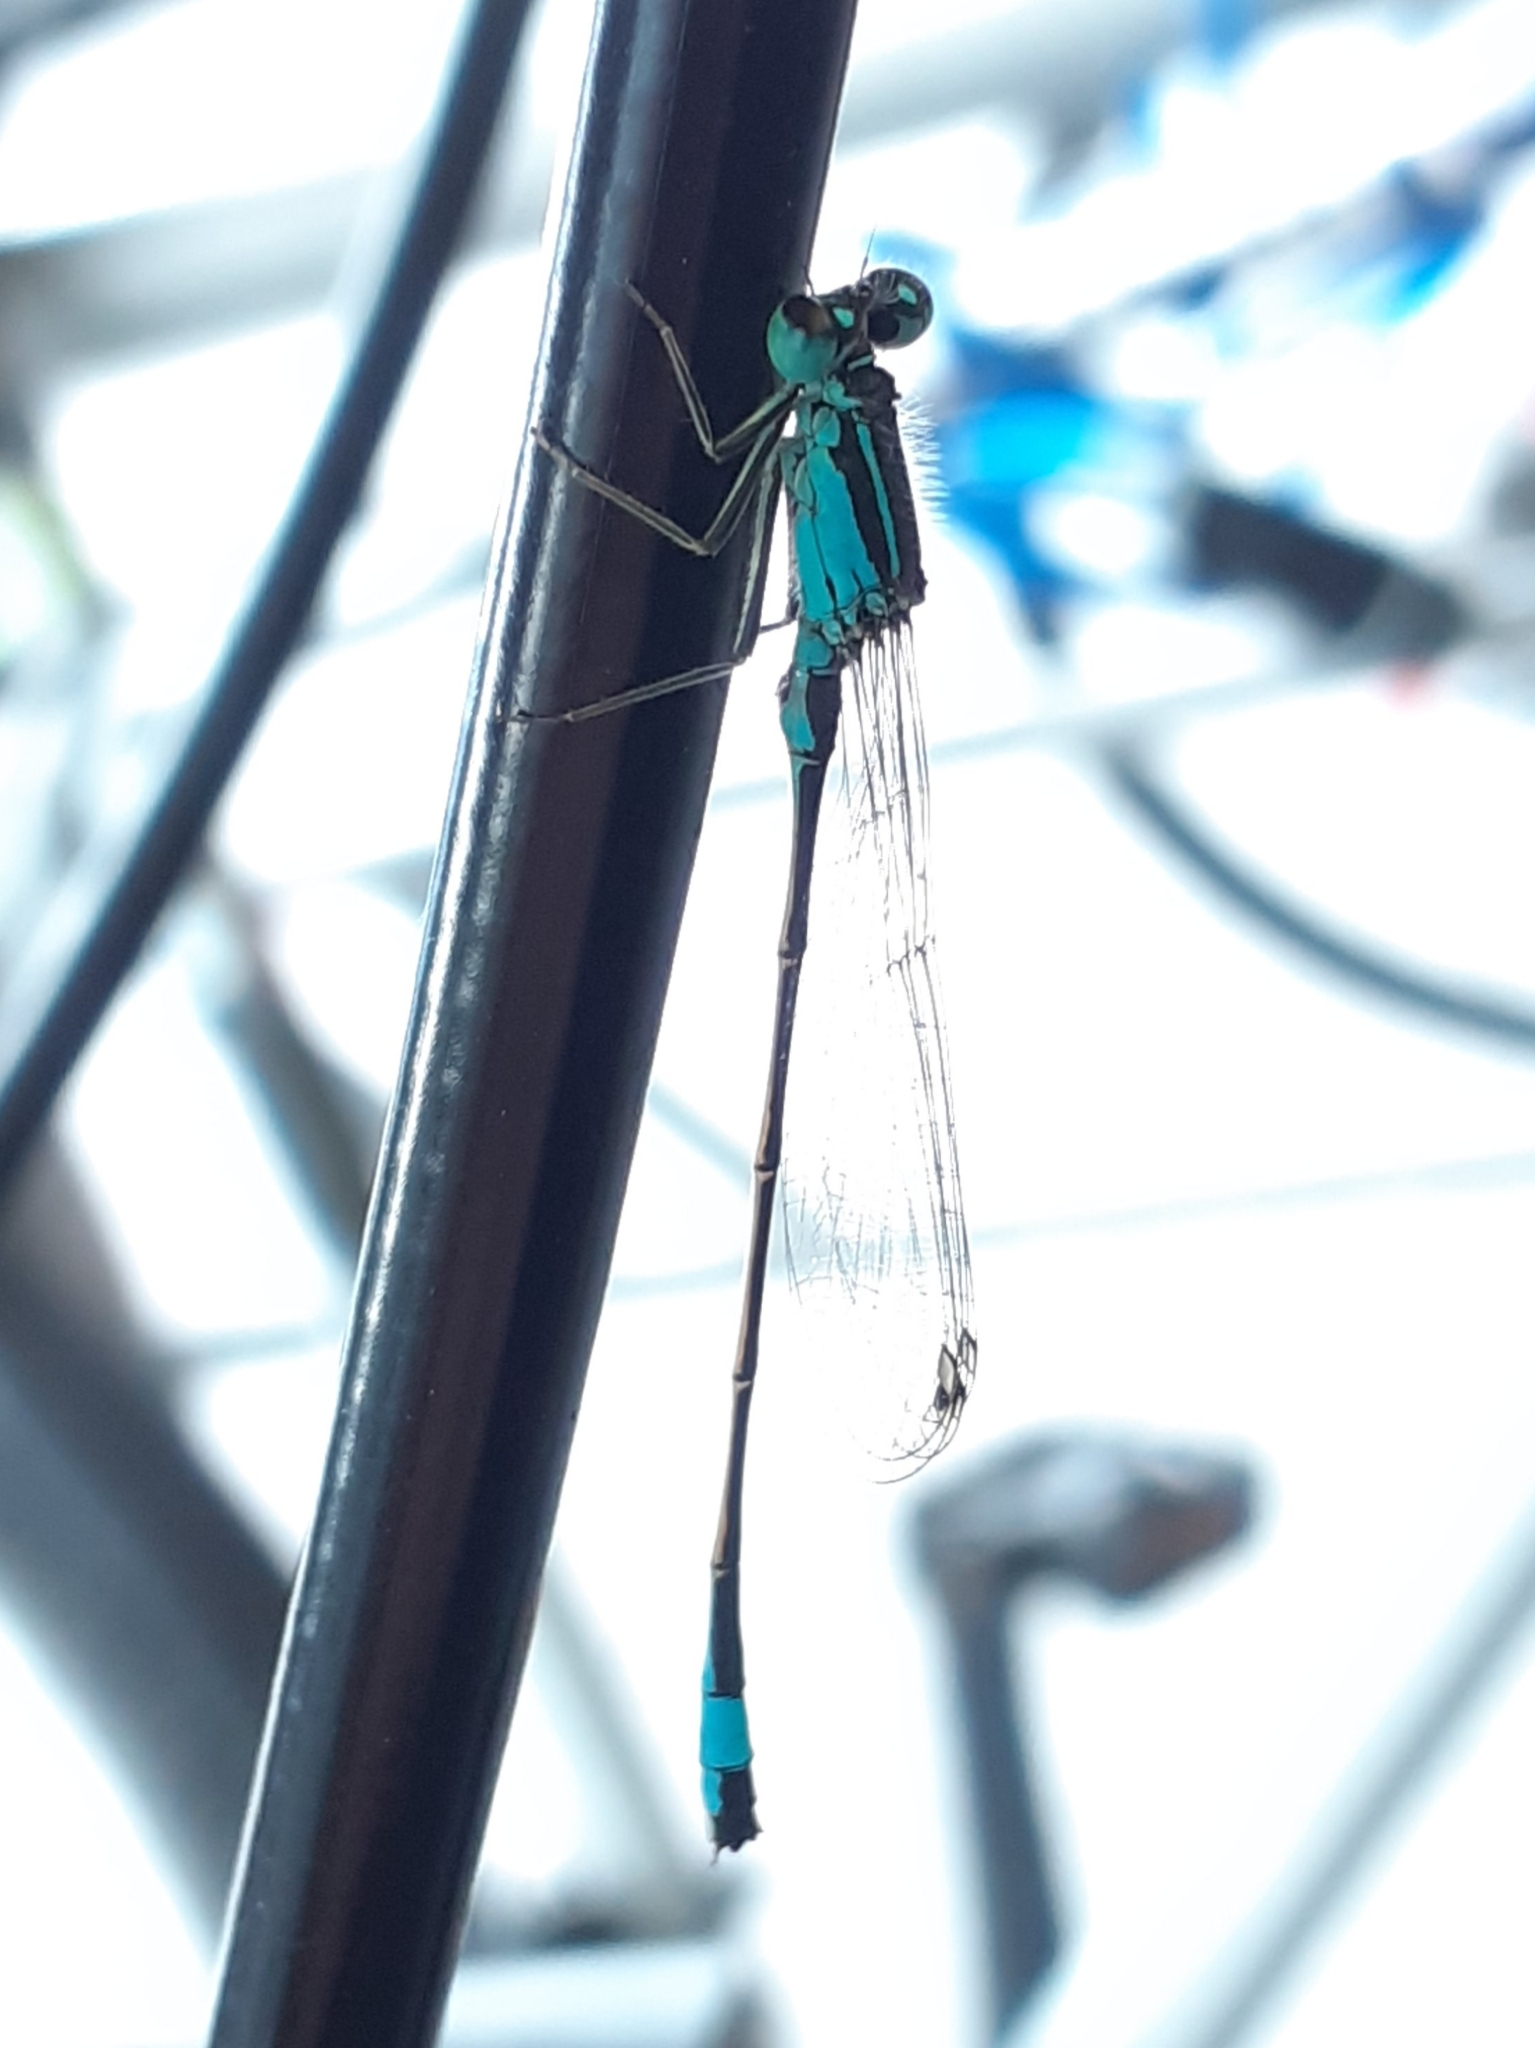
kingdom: Animalia
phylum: Arthropoda
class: Insecta
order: Odonata
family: Coenagrionidae
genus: Ischnura
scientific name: Ischnura elegans
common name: Blue-tailed damselfly
